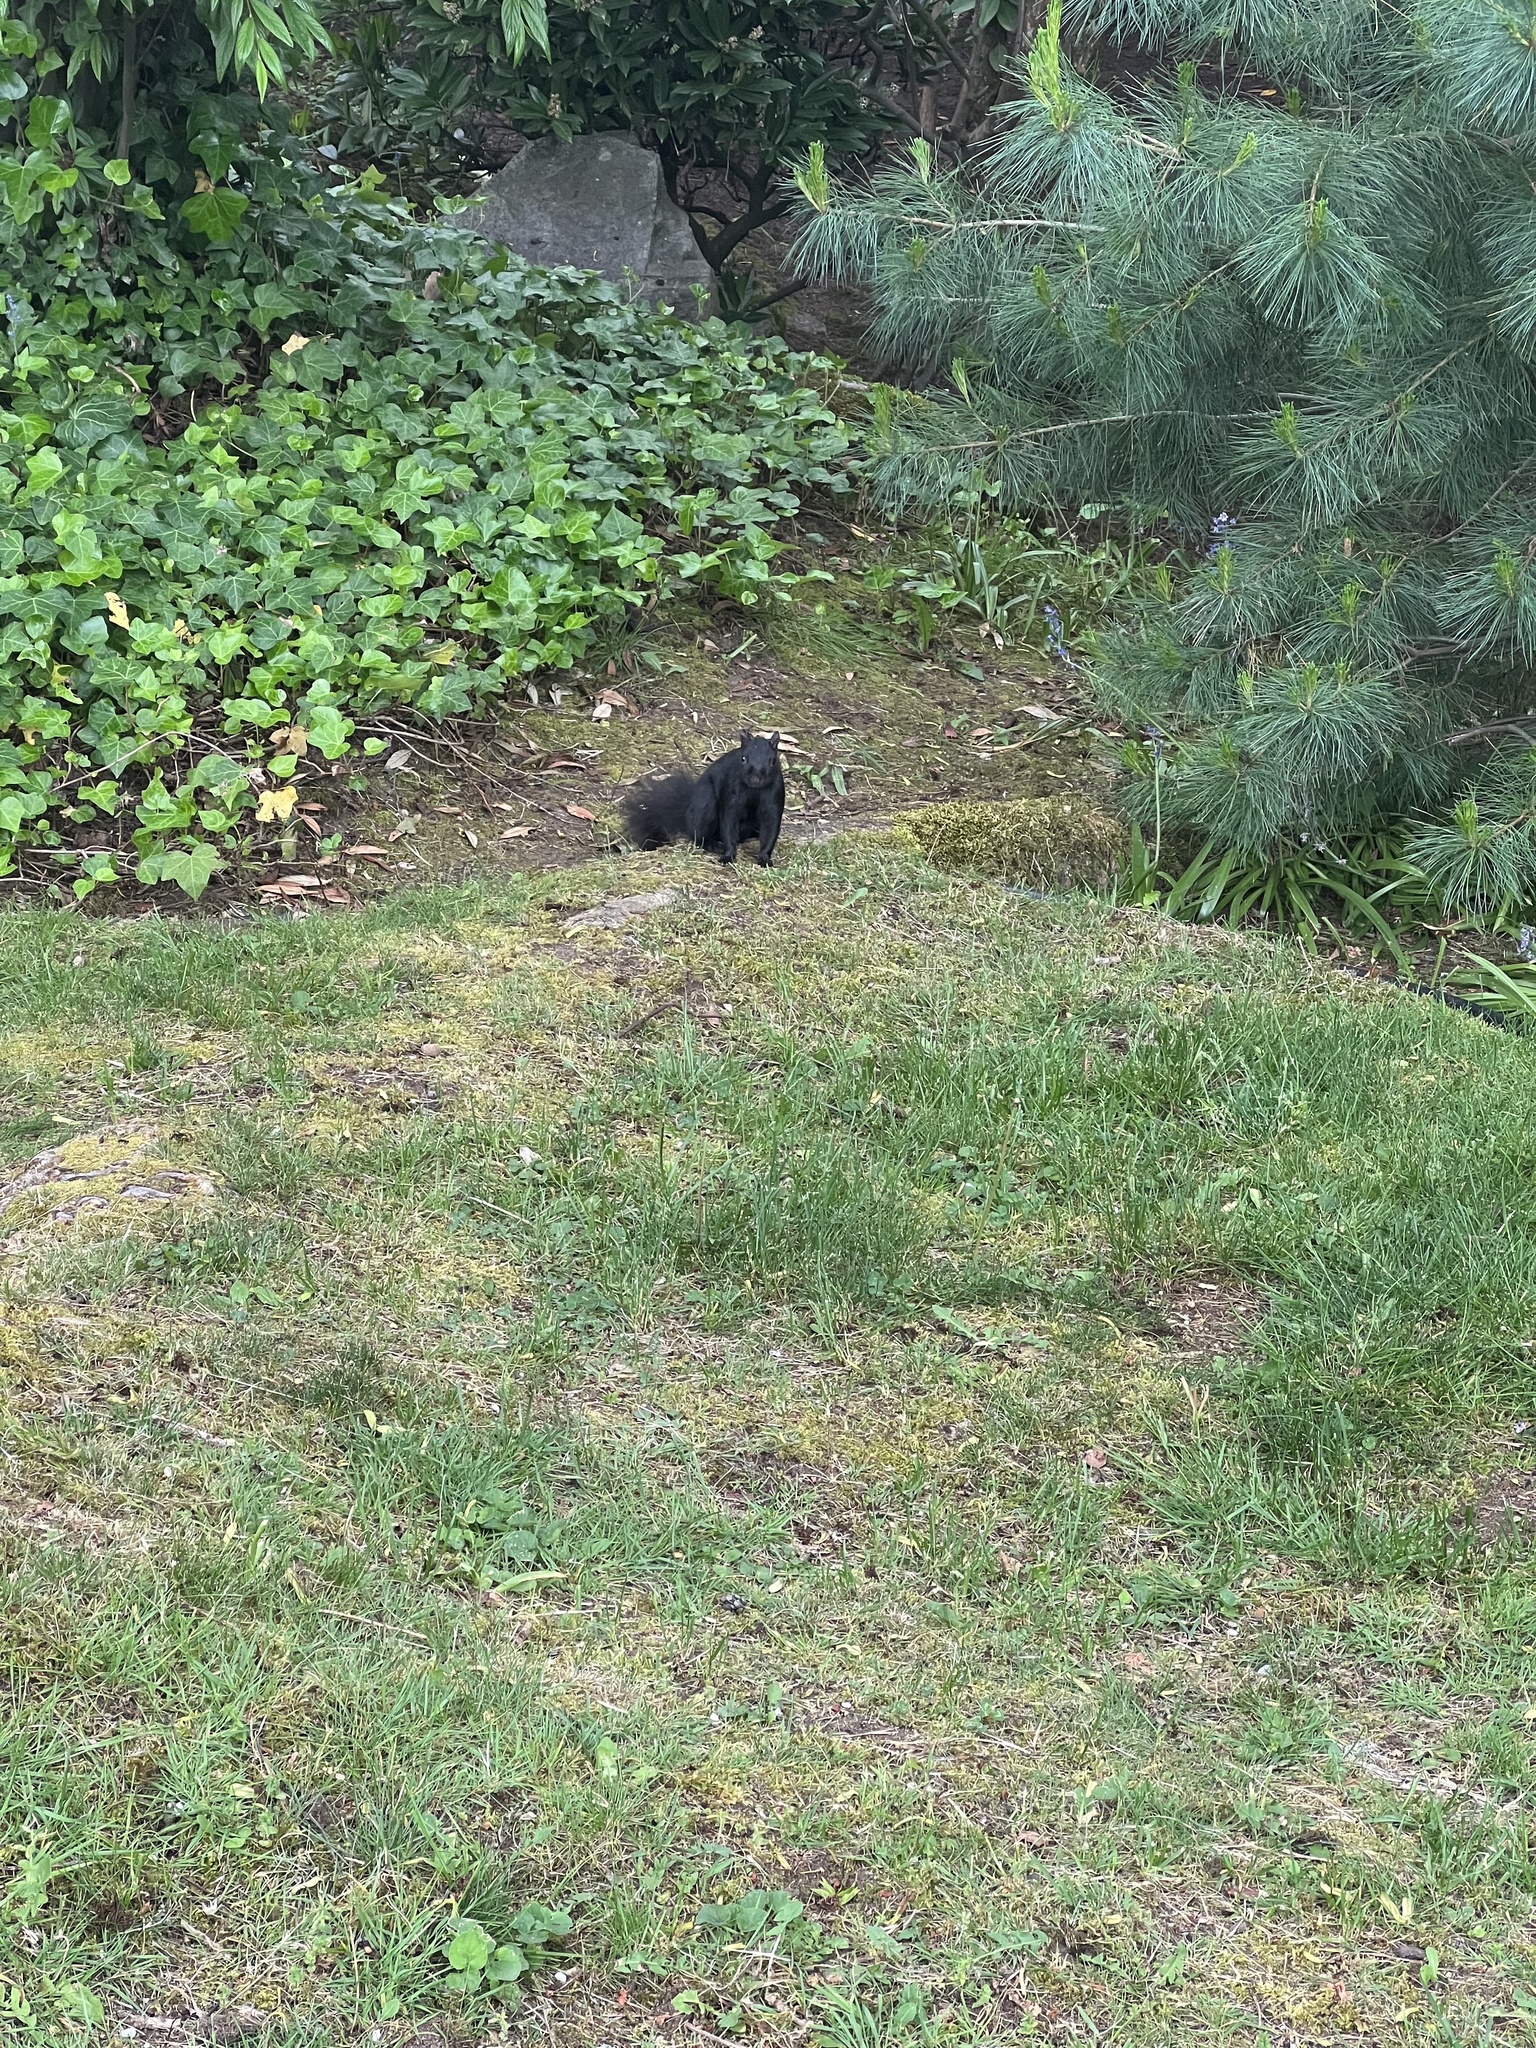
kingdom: Animalia
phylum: Chordata
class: Mammalia
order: Rodentia
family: Sciuridae
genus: Sciurus
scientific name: Sciurus carolinensis
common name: Eastern gray squirrel
